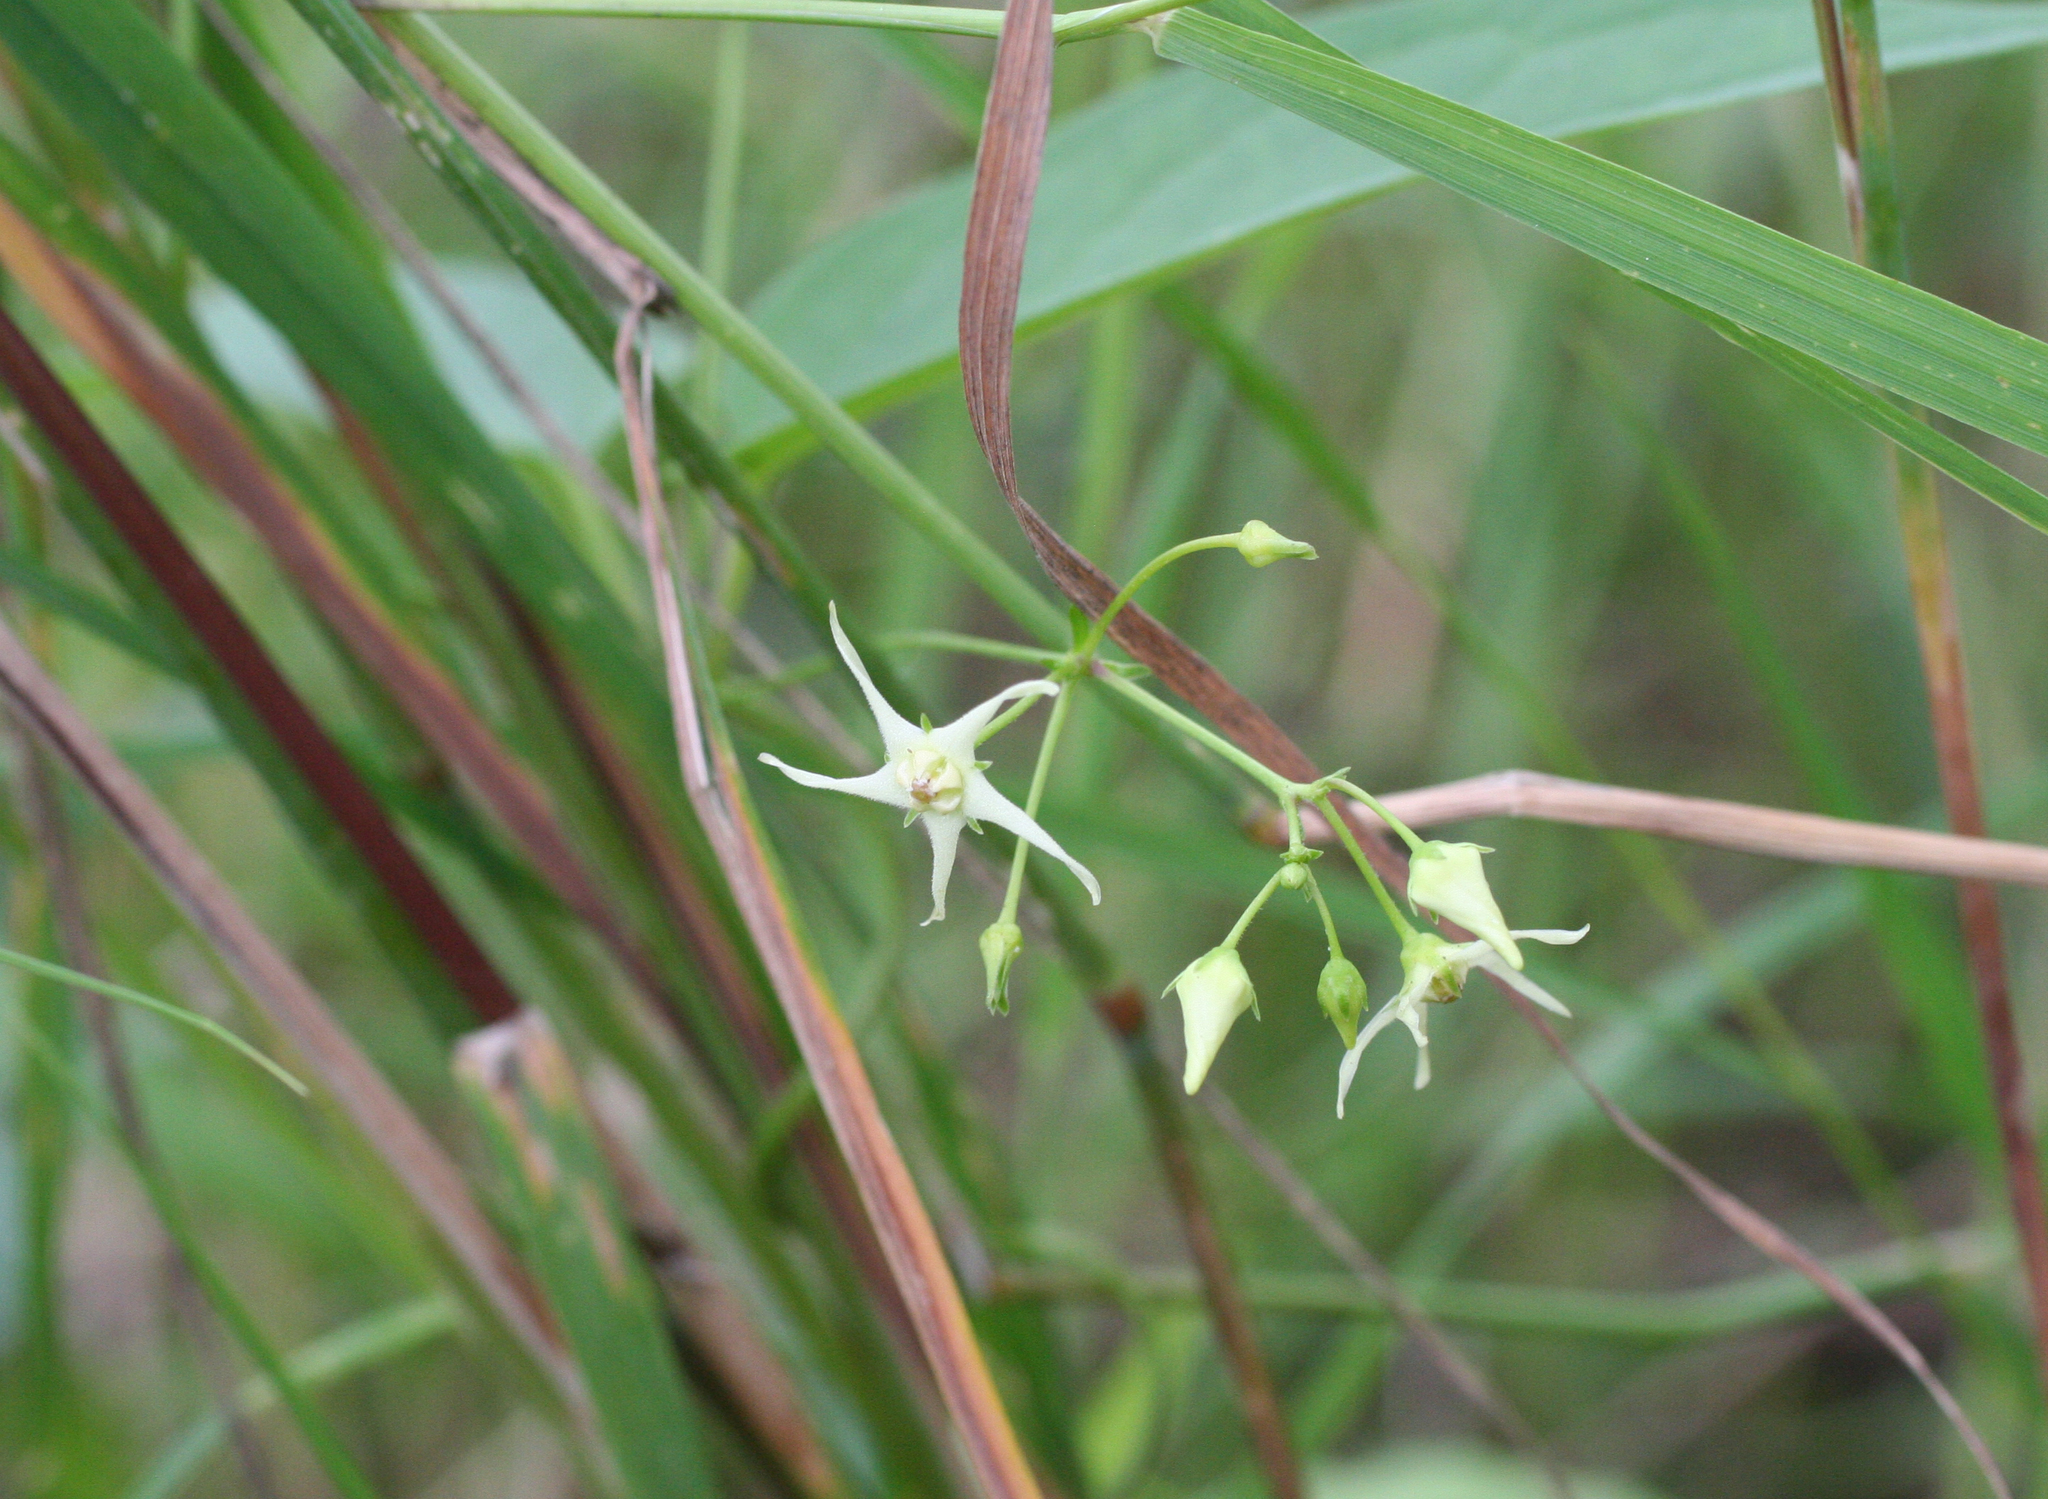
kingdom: Plantae
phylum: Tracheophyta
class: Magnoliopsida
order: Gentianales
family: Apocynaceae
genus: Vincetoxicum
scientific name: Vincetoxicum volubile
